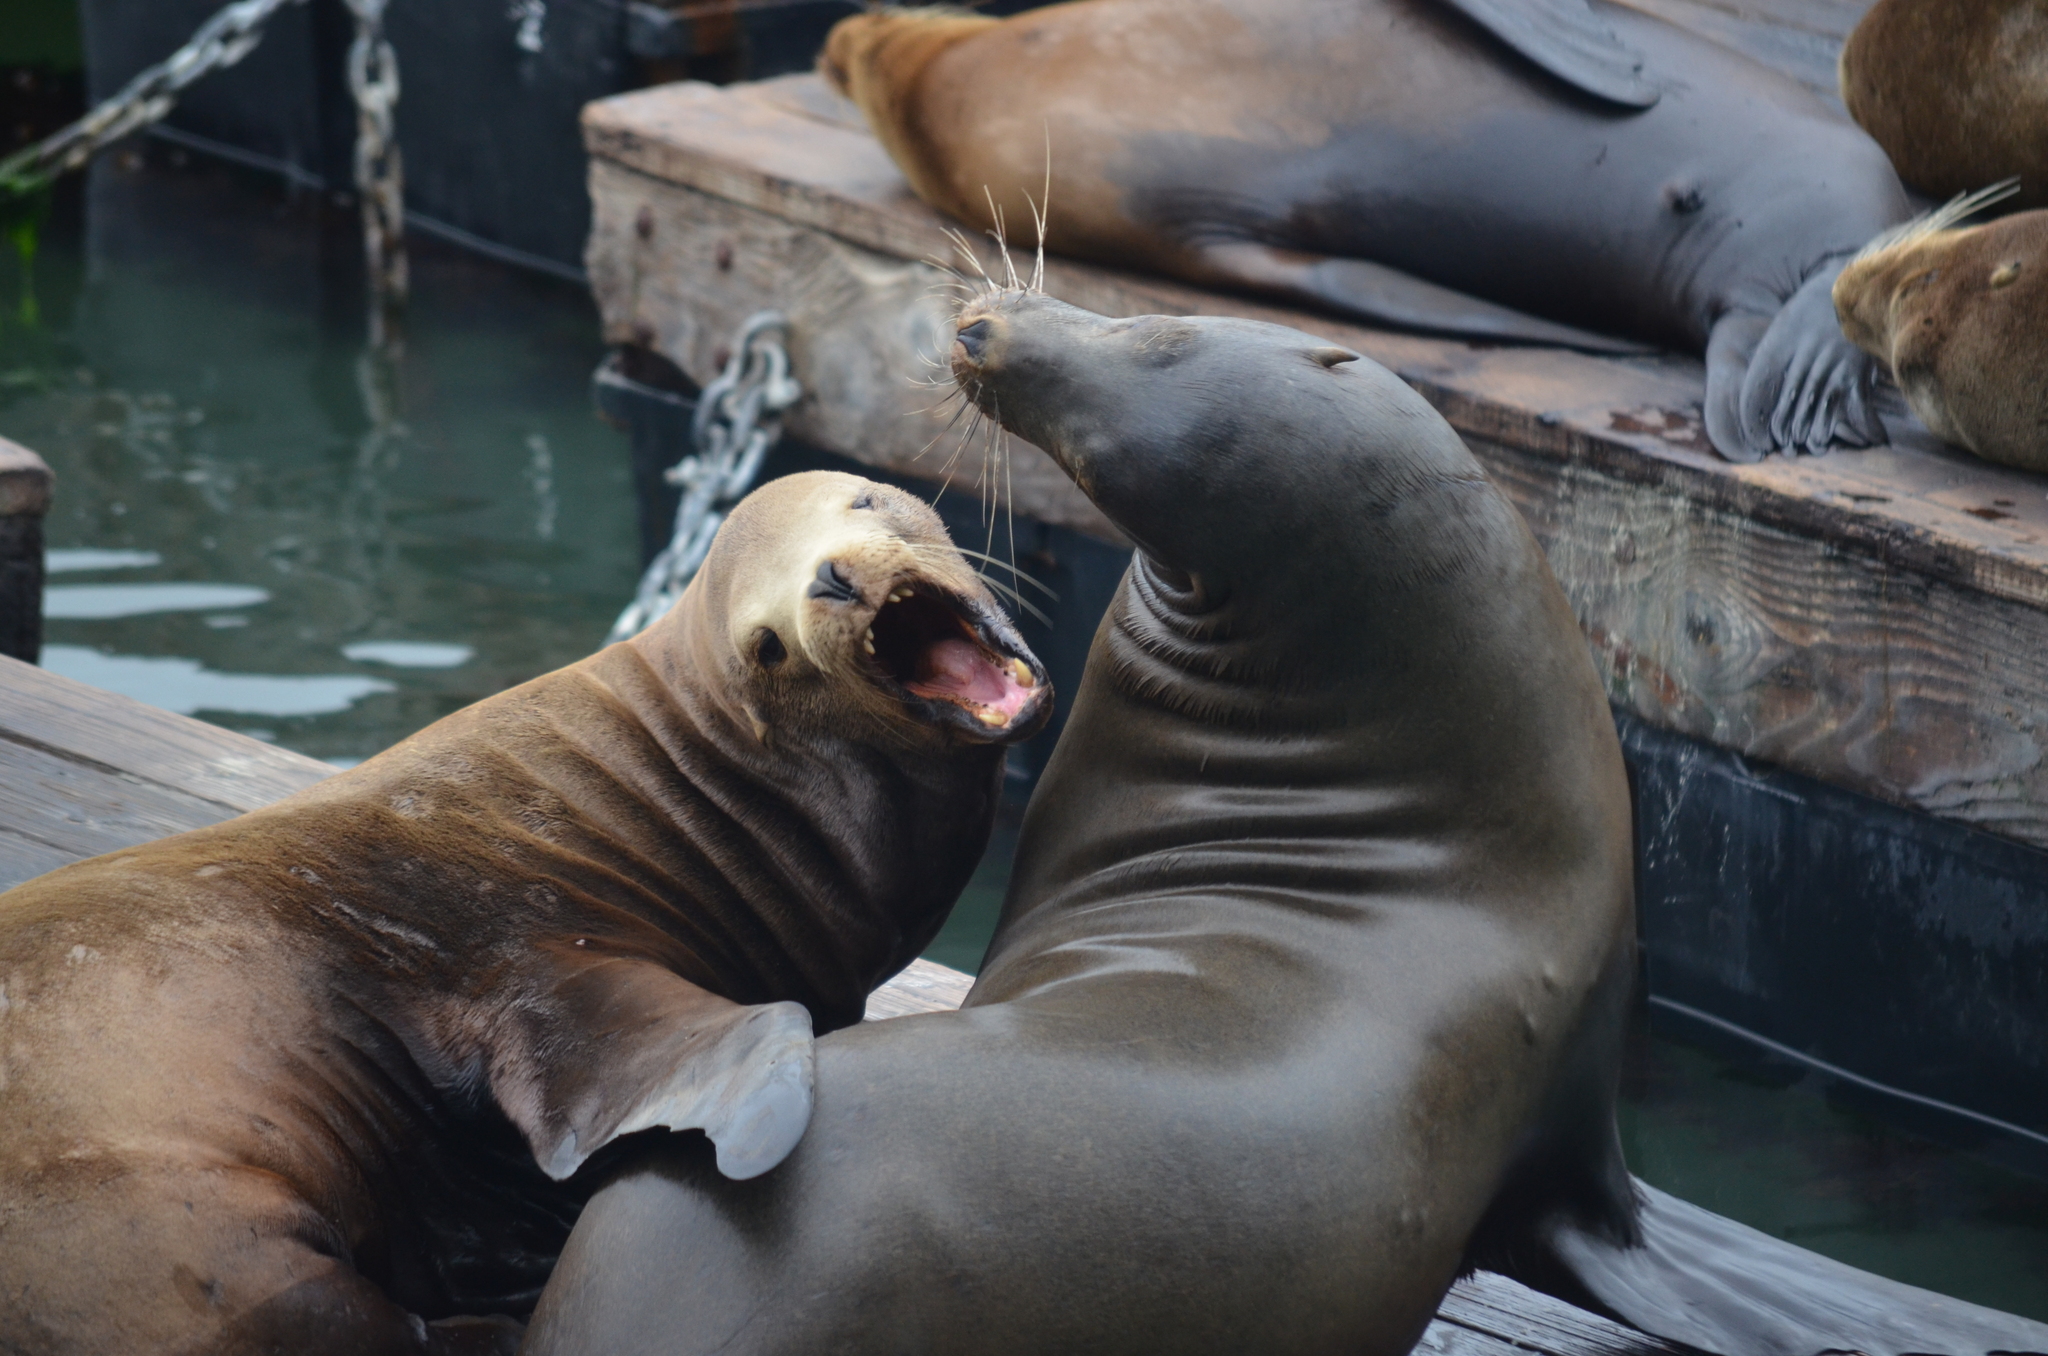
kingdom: Animalia
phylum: Chordata
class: Mammalia
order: Carnivora
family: Otariidae
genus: Zalophus
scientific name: Zalophus californianus
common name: California sea lion
